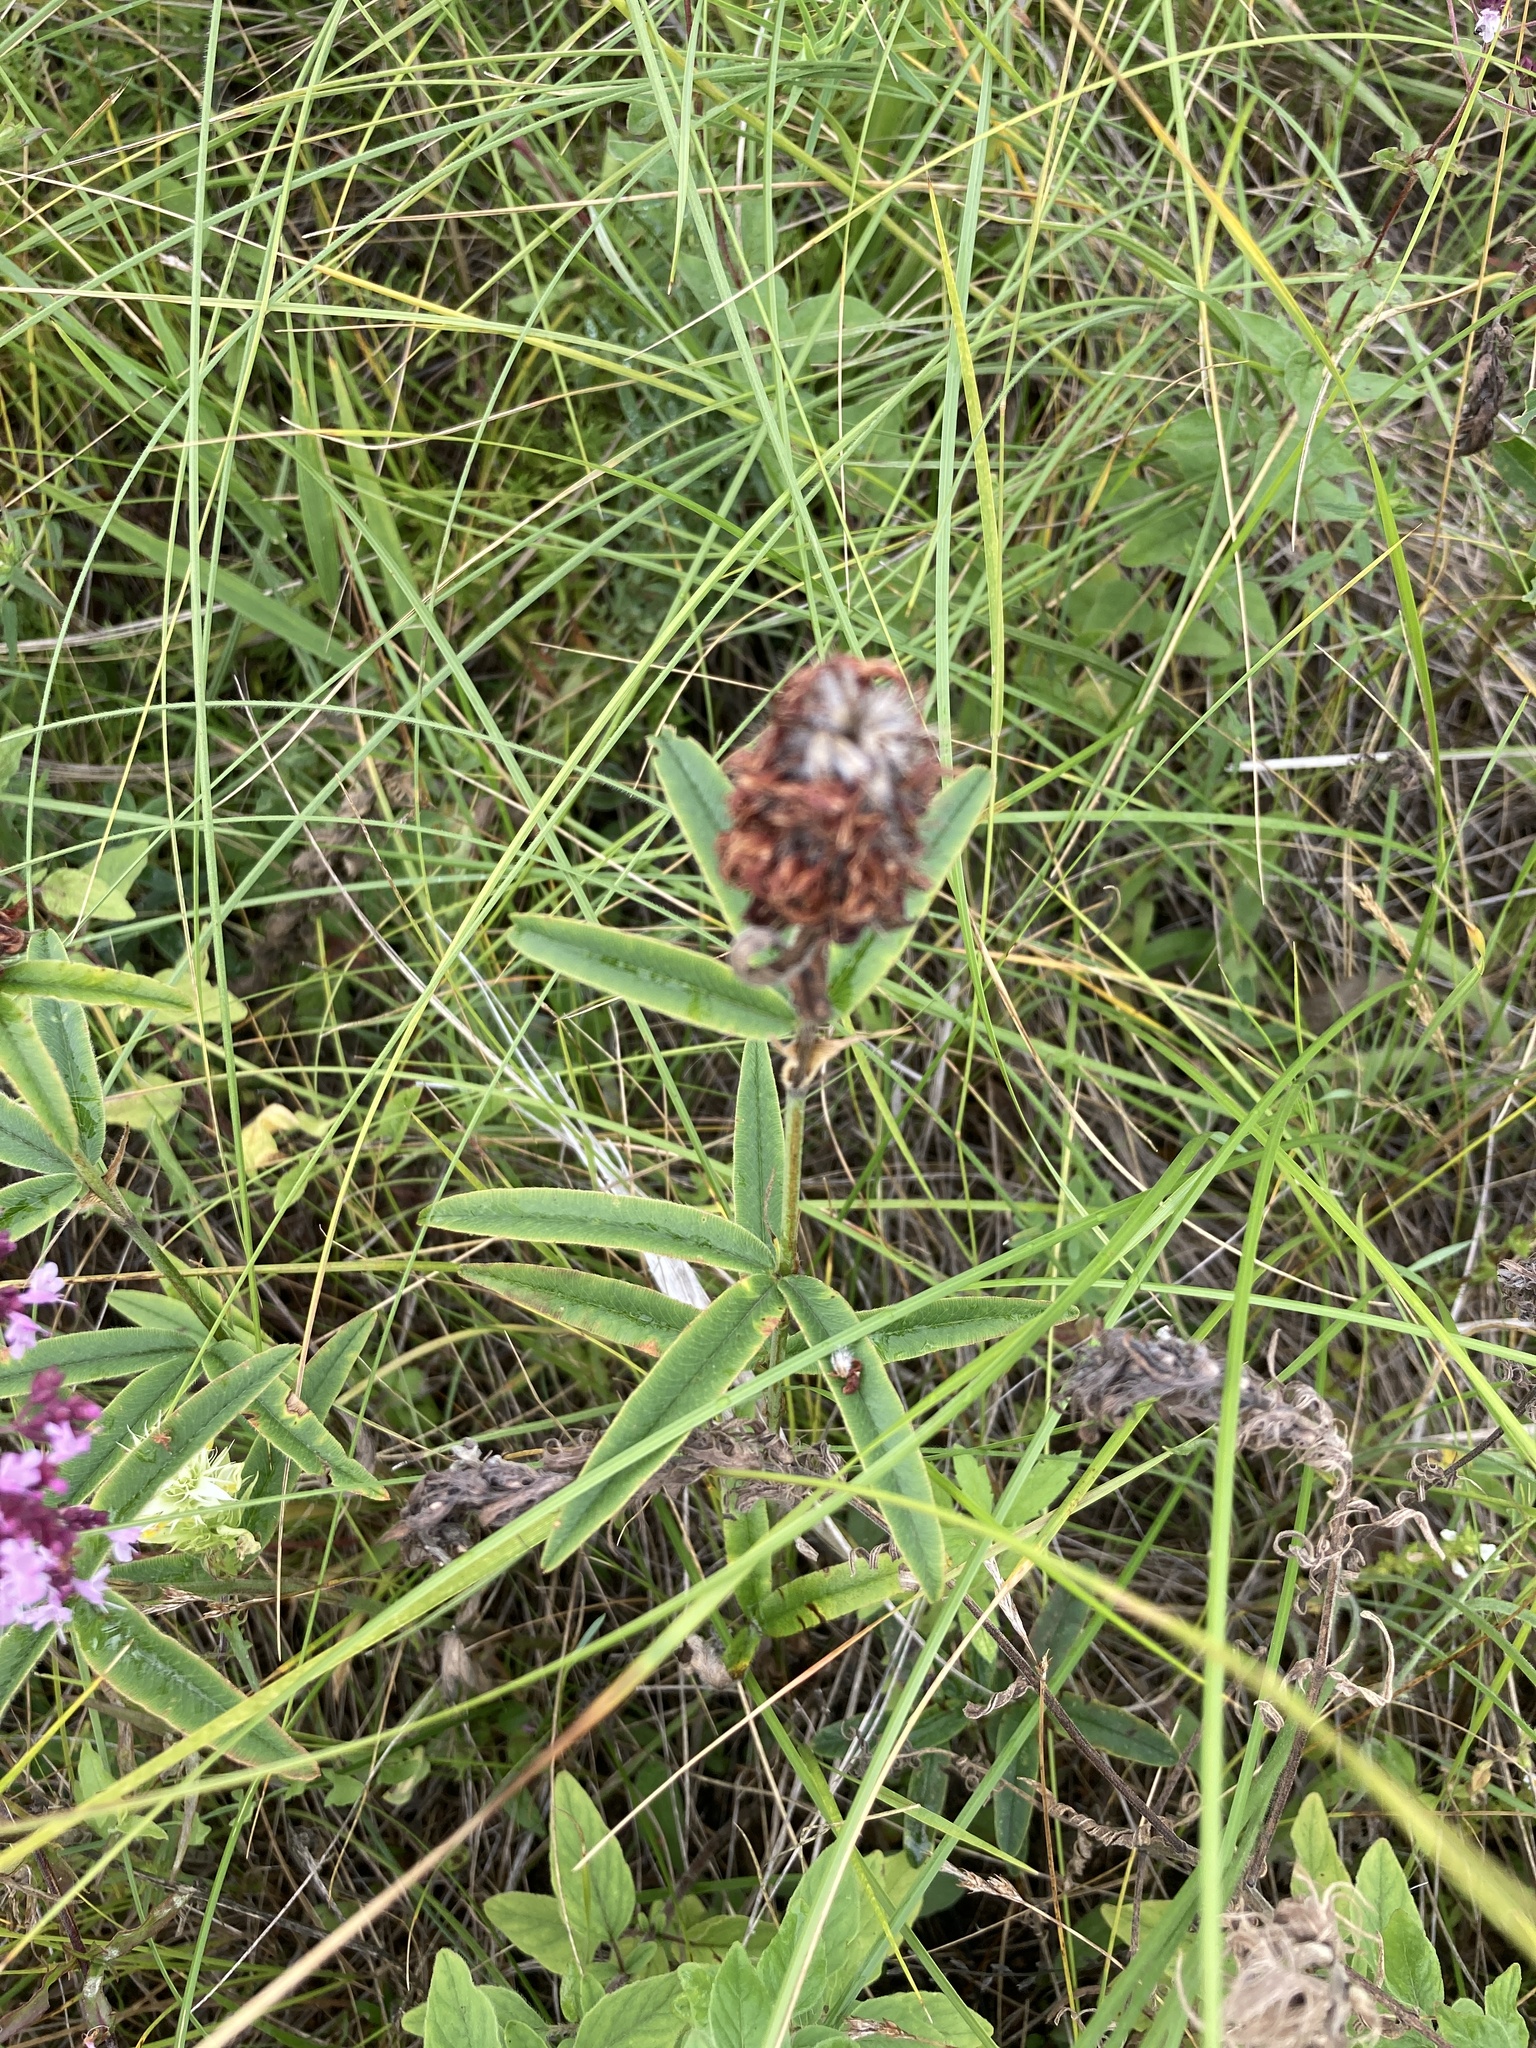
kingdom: Plantae
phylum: Tracheophyta
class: Magnoliopsida
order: Fabales
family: Fabaceae
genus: Trifolium
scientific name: Trifolium alpestre
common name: Owl-head clover
